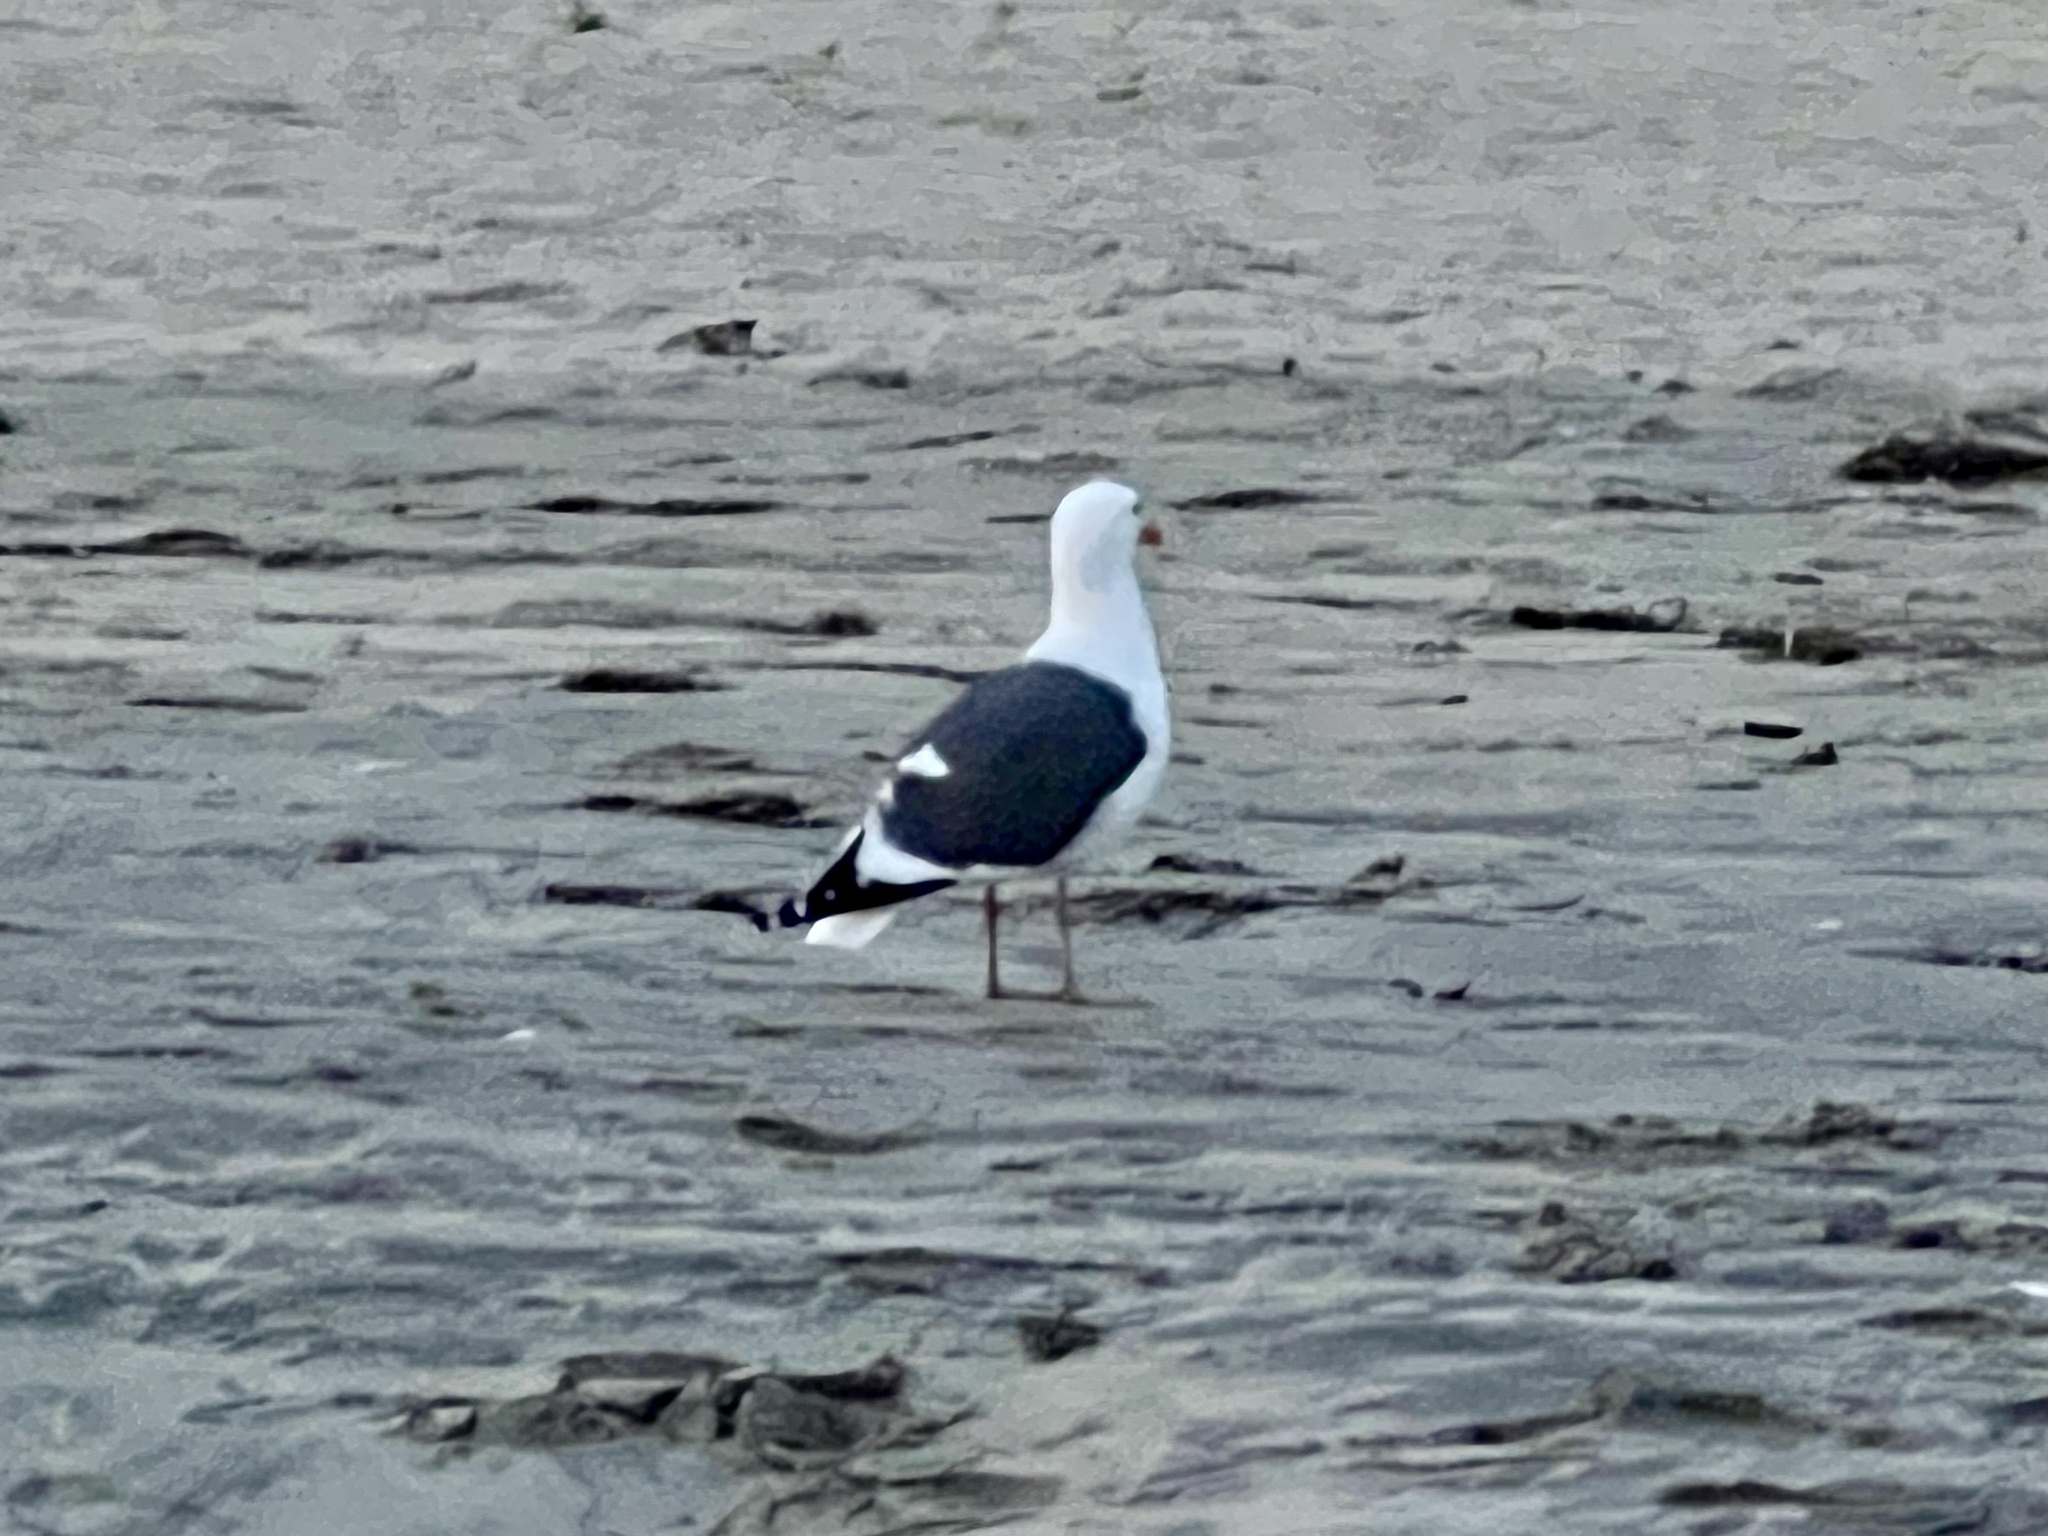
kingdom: Animalia
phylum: Chordata
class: Aves
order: Charadriiformes
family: Laridae
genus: Larus
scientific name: Larus occidentalis
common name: Western gull
